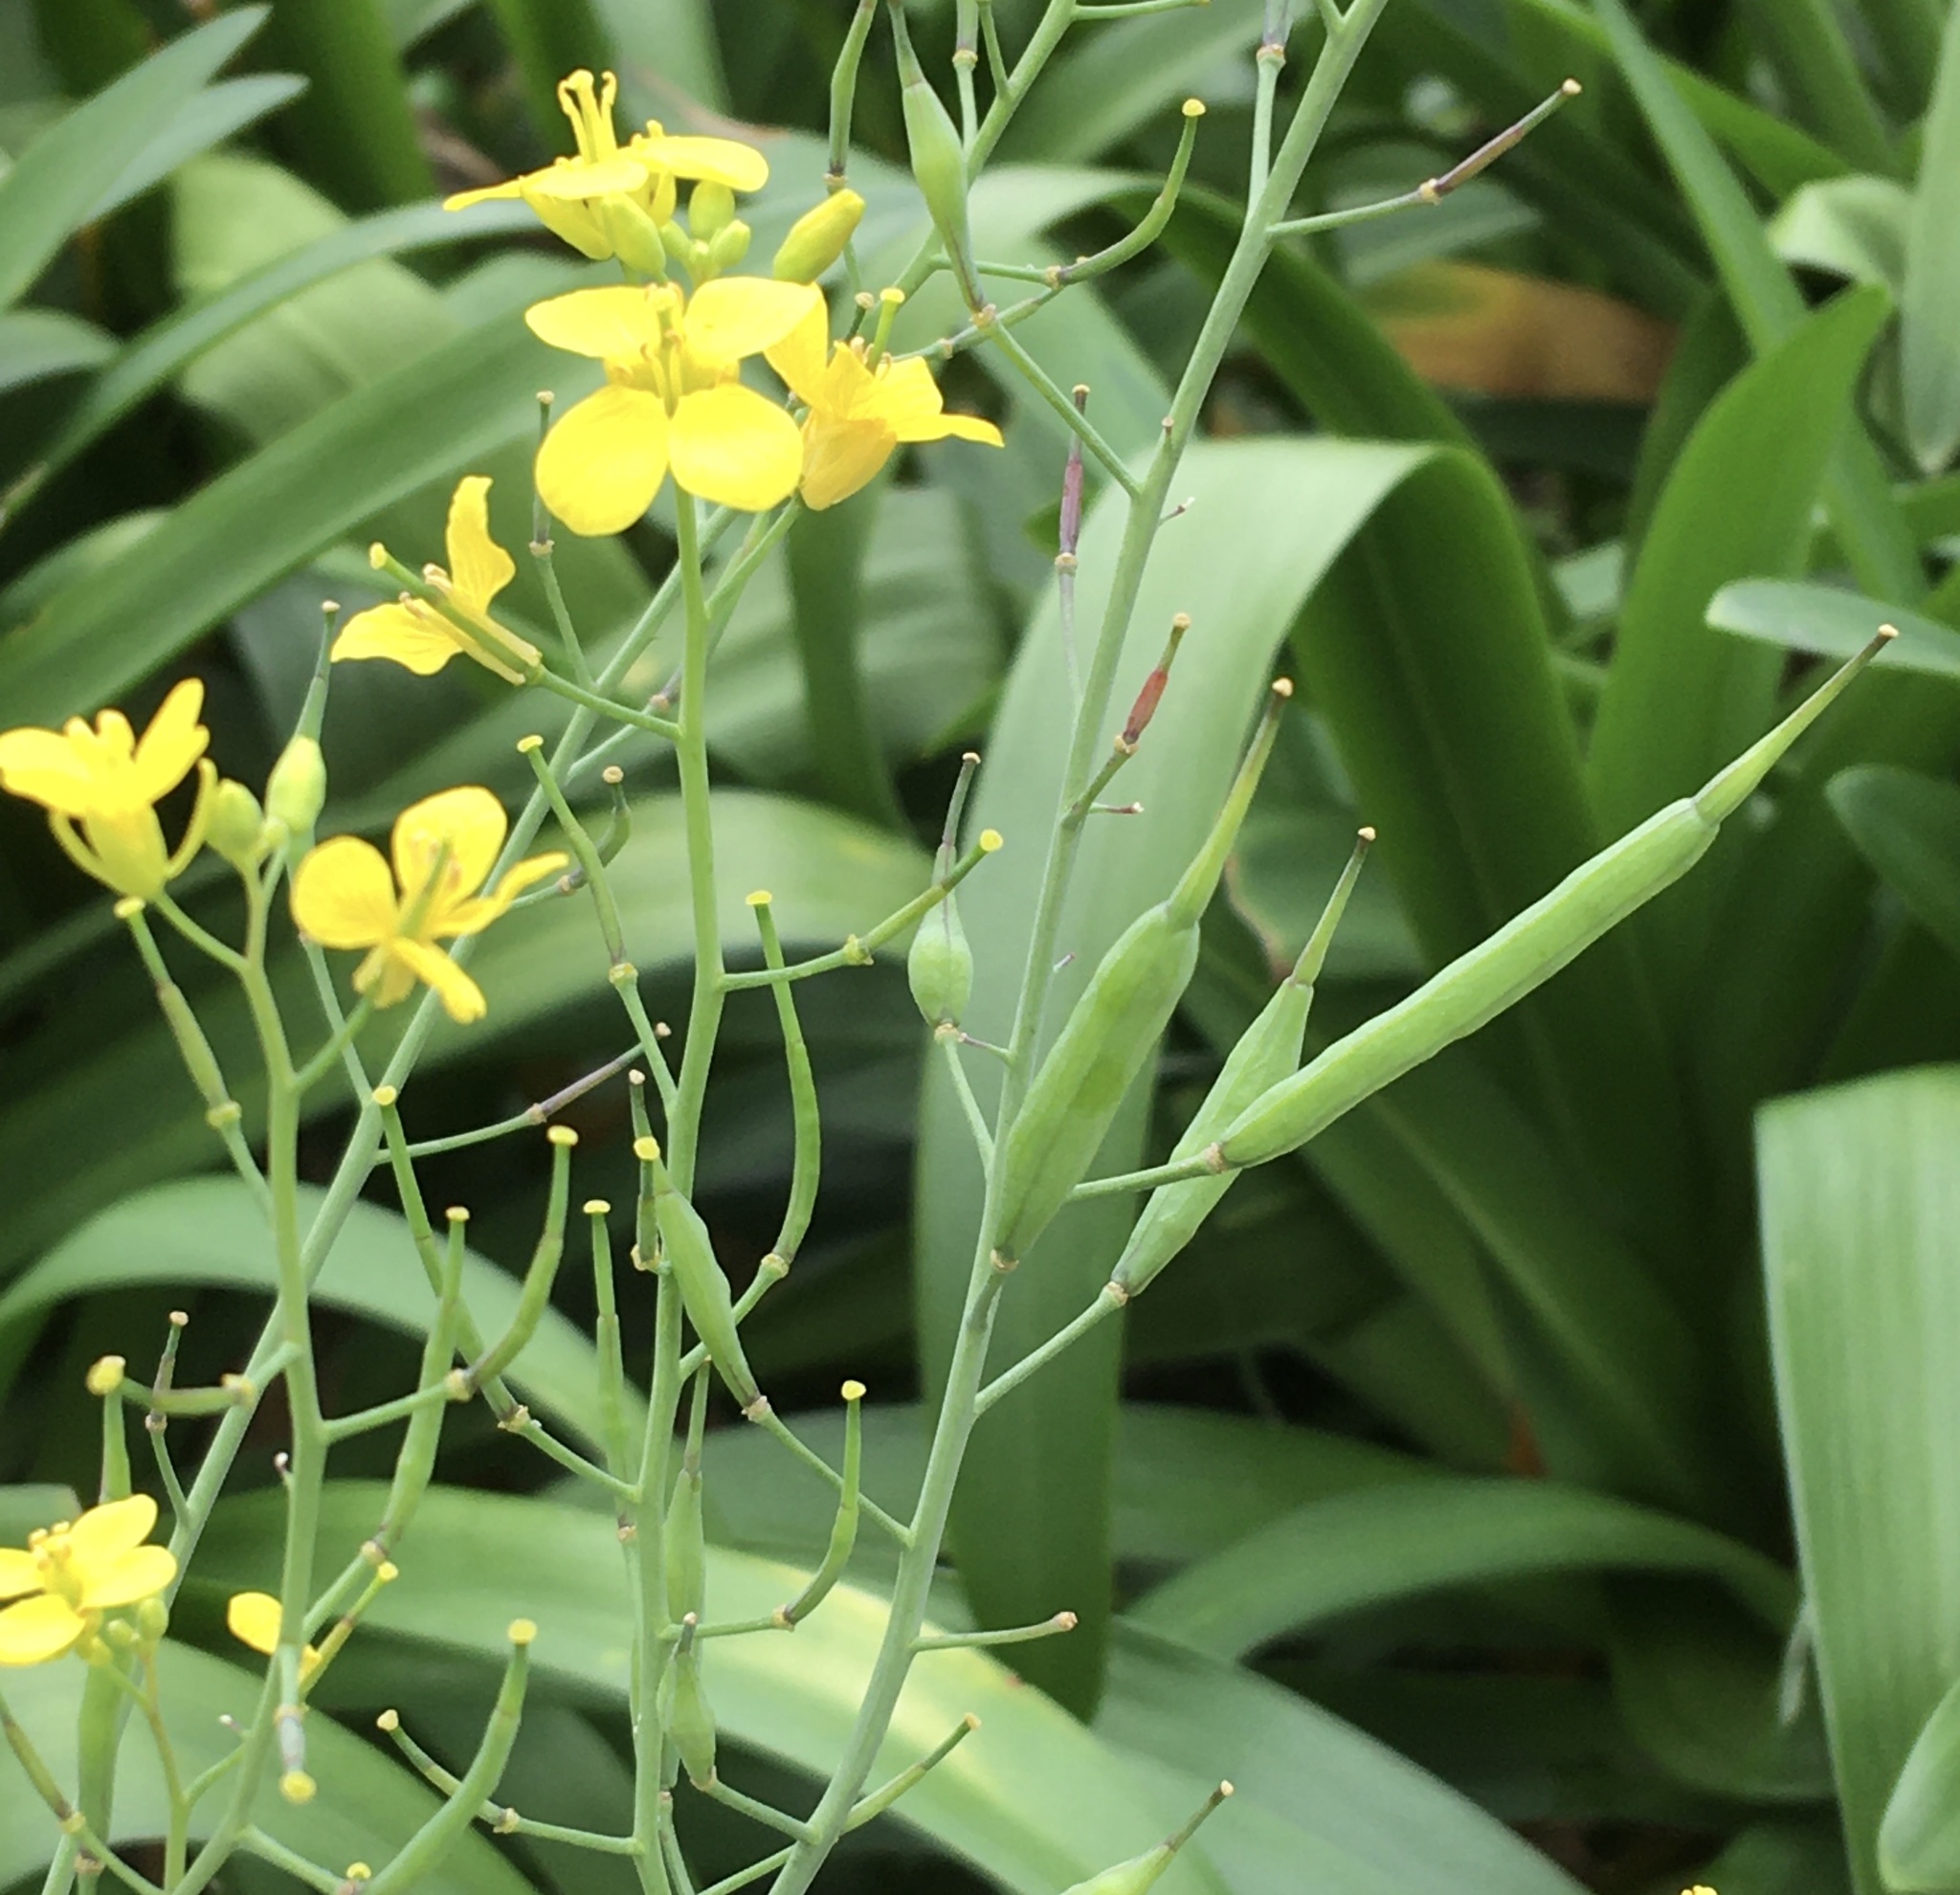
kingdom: Plantae
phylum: Tracheophyta
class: Magnoliopsida
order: Brassicales
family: Brassicaceae
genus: Brassica
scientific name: Brassica rapa
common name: Field mustard
